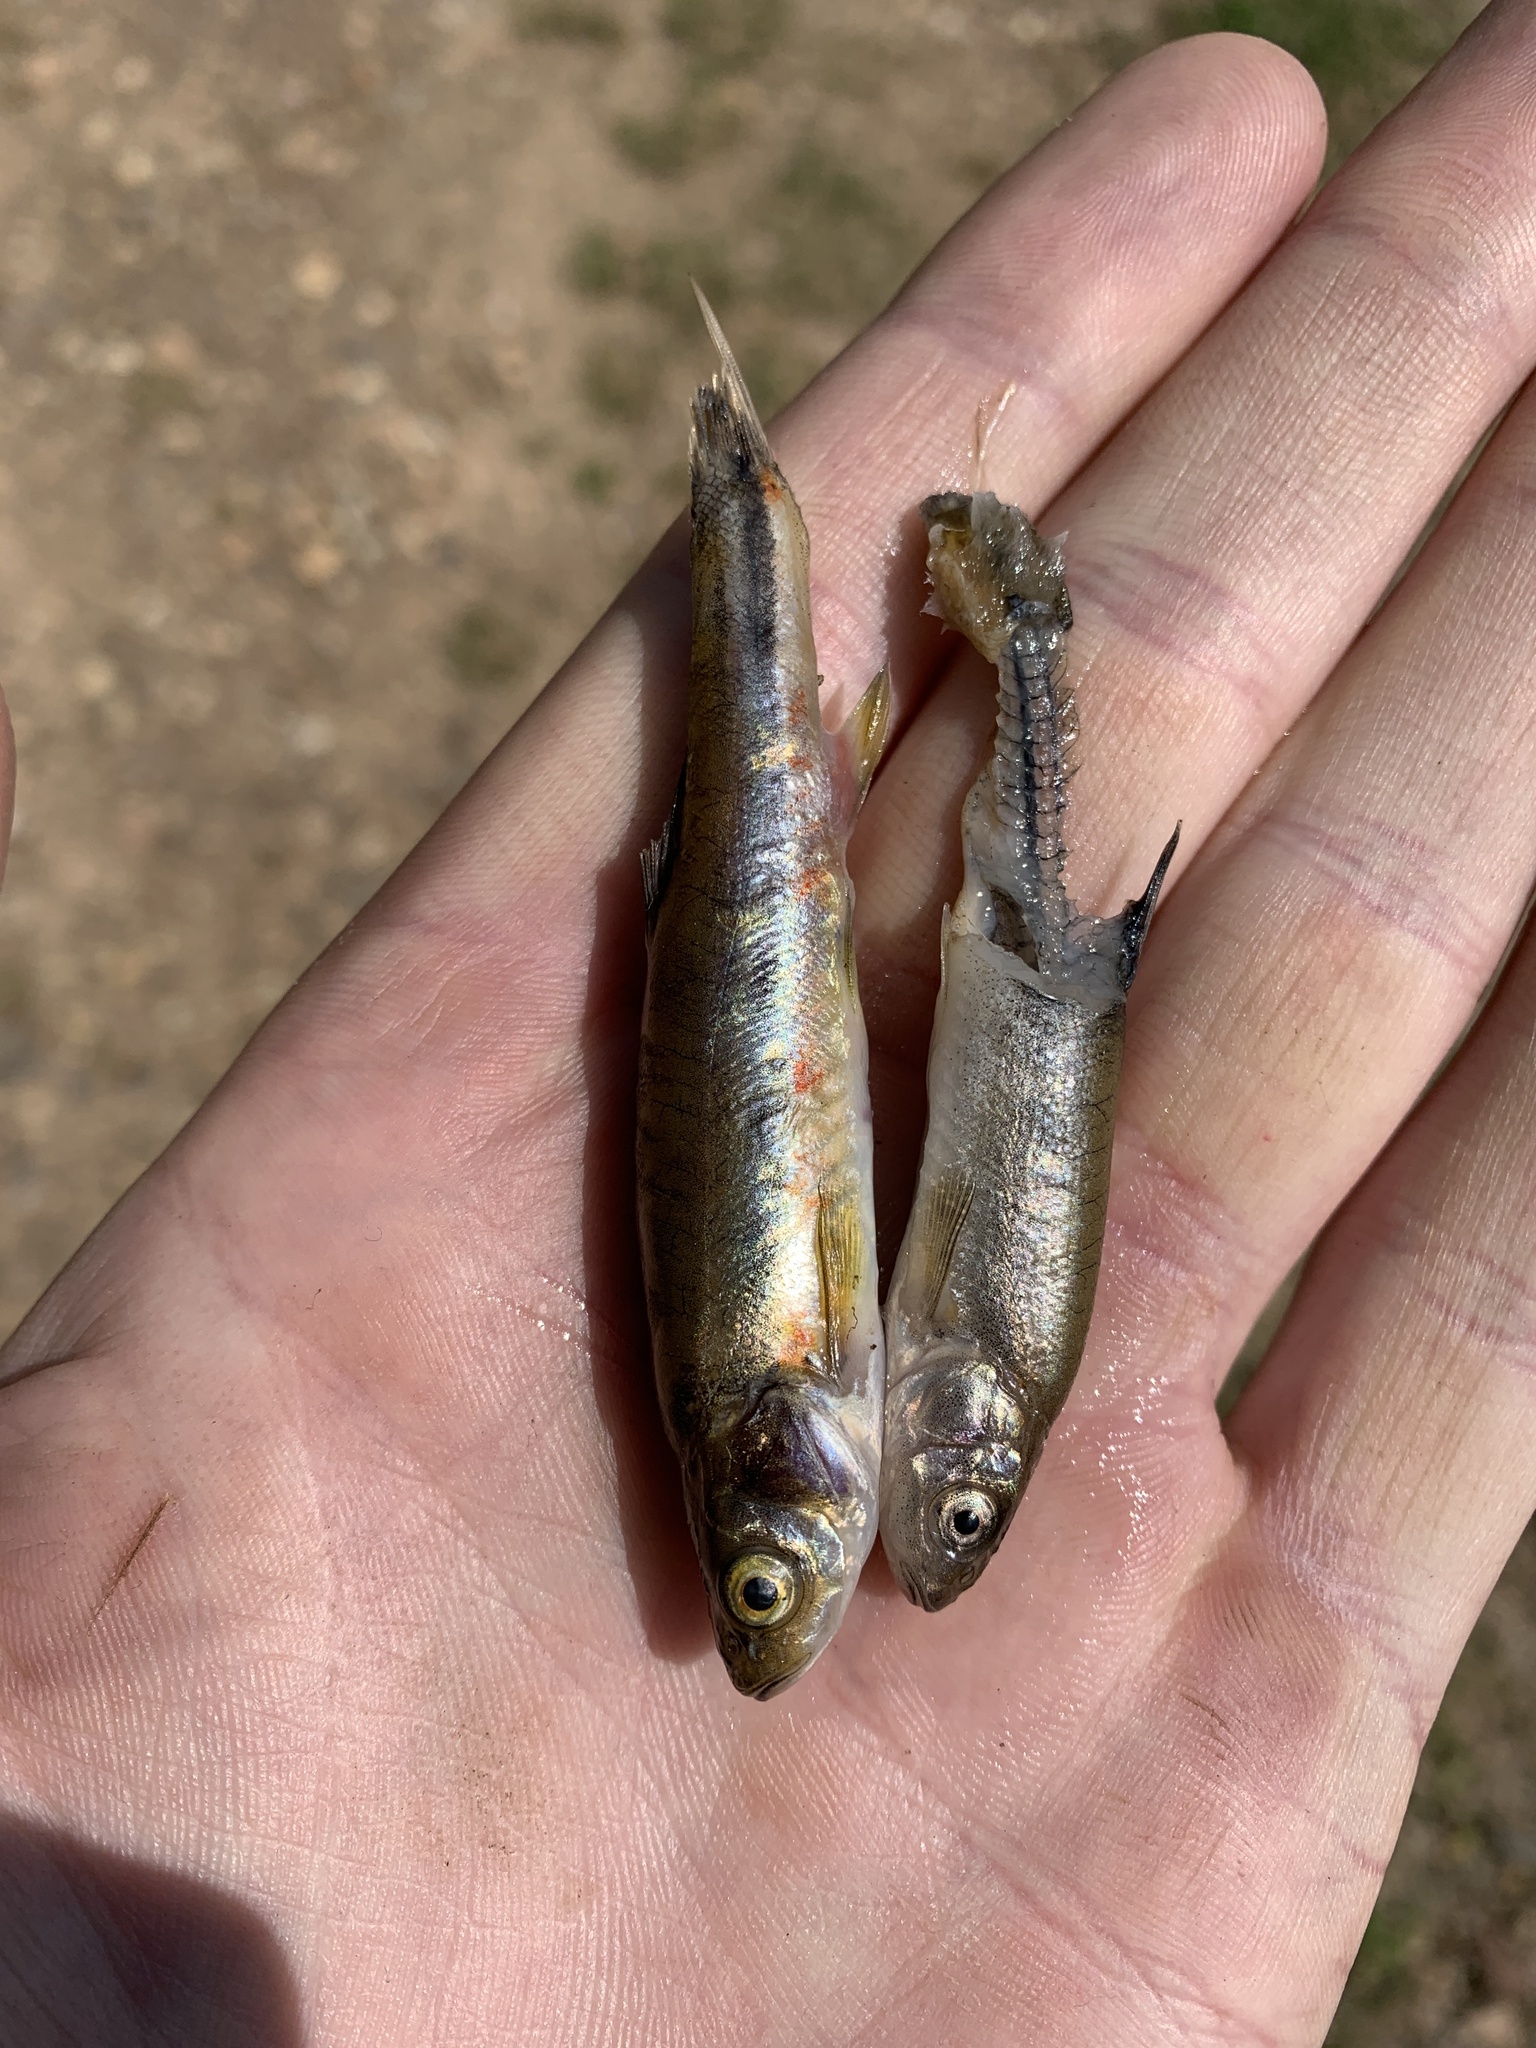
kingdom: Animalia
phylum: Chordata
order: Cypriniformes
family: Cyprinidae
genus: Margariscus
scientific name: Margariscus nachtriebi
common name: Northern pearl dace
